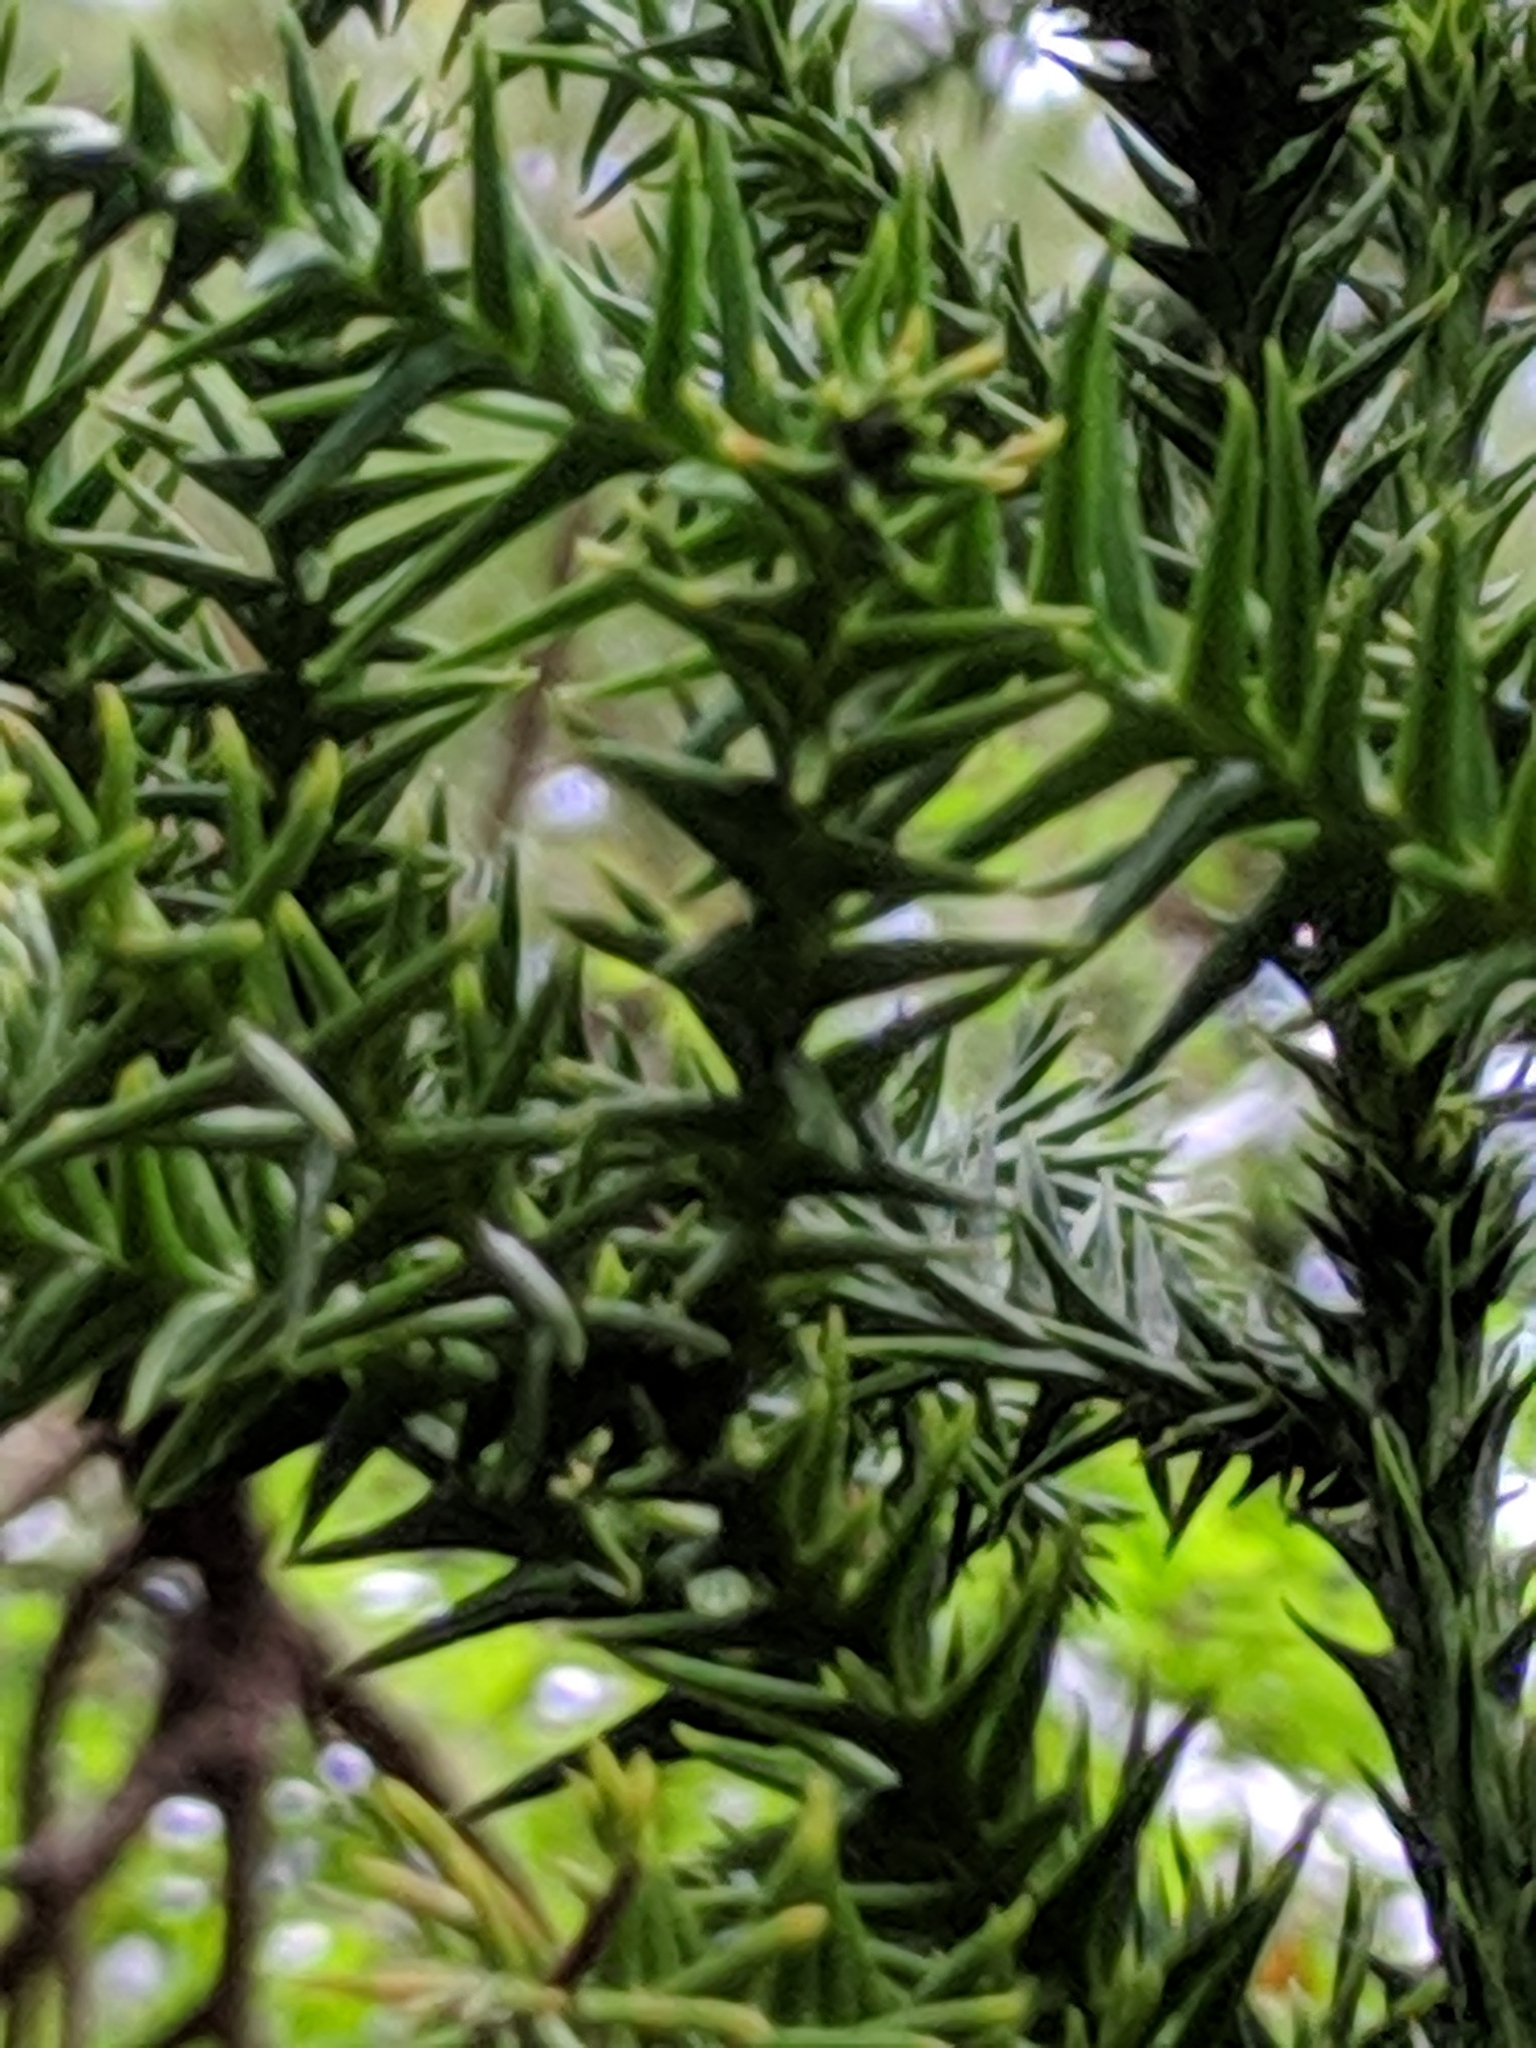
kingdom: Plantae
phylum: Tracheophyta
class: Pinopsida
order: Pinales
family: Cupressaceae
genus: Cryptomeria
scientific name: Cryptomeria japonica
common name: Japanese cedar
